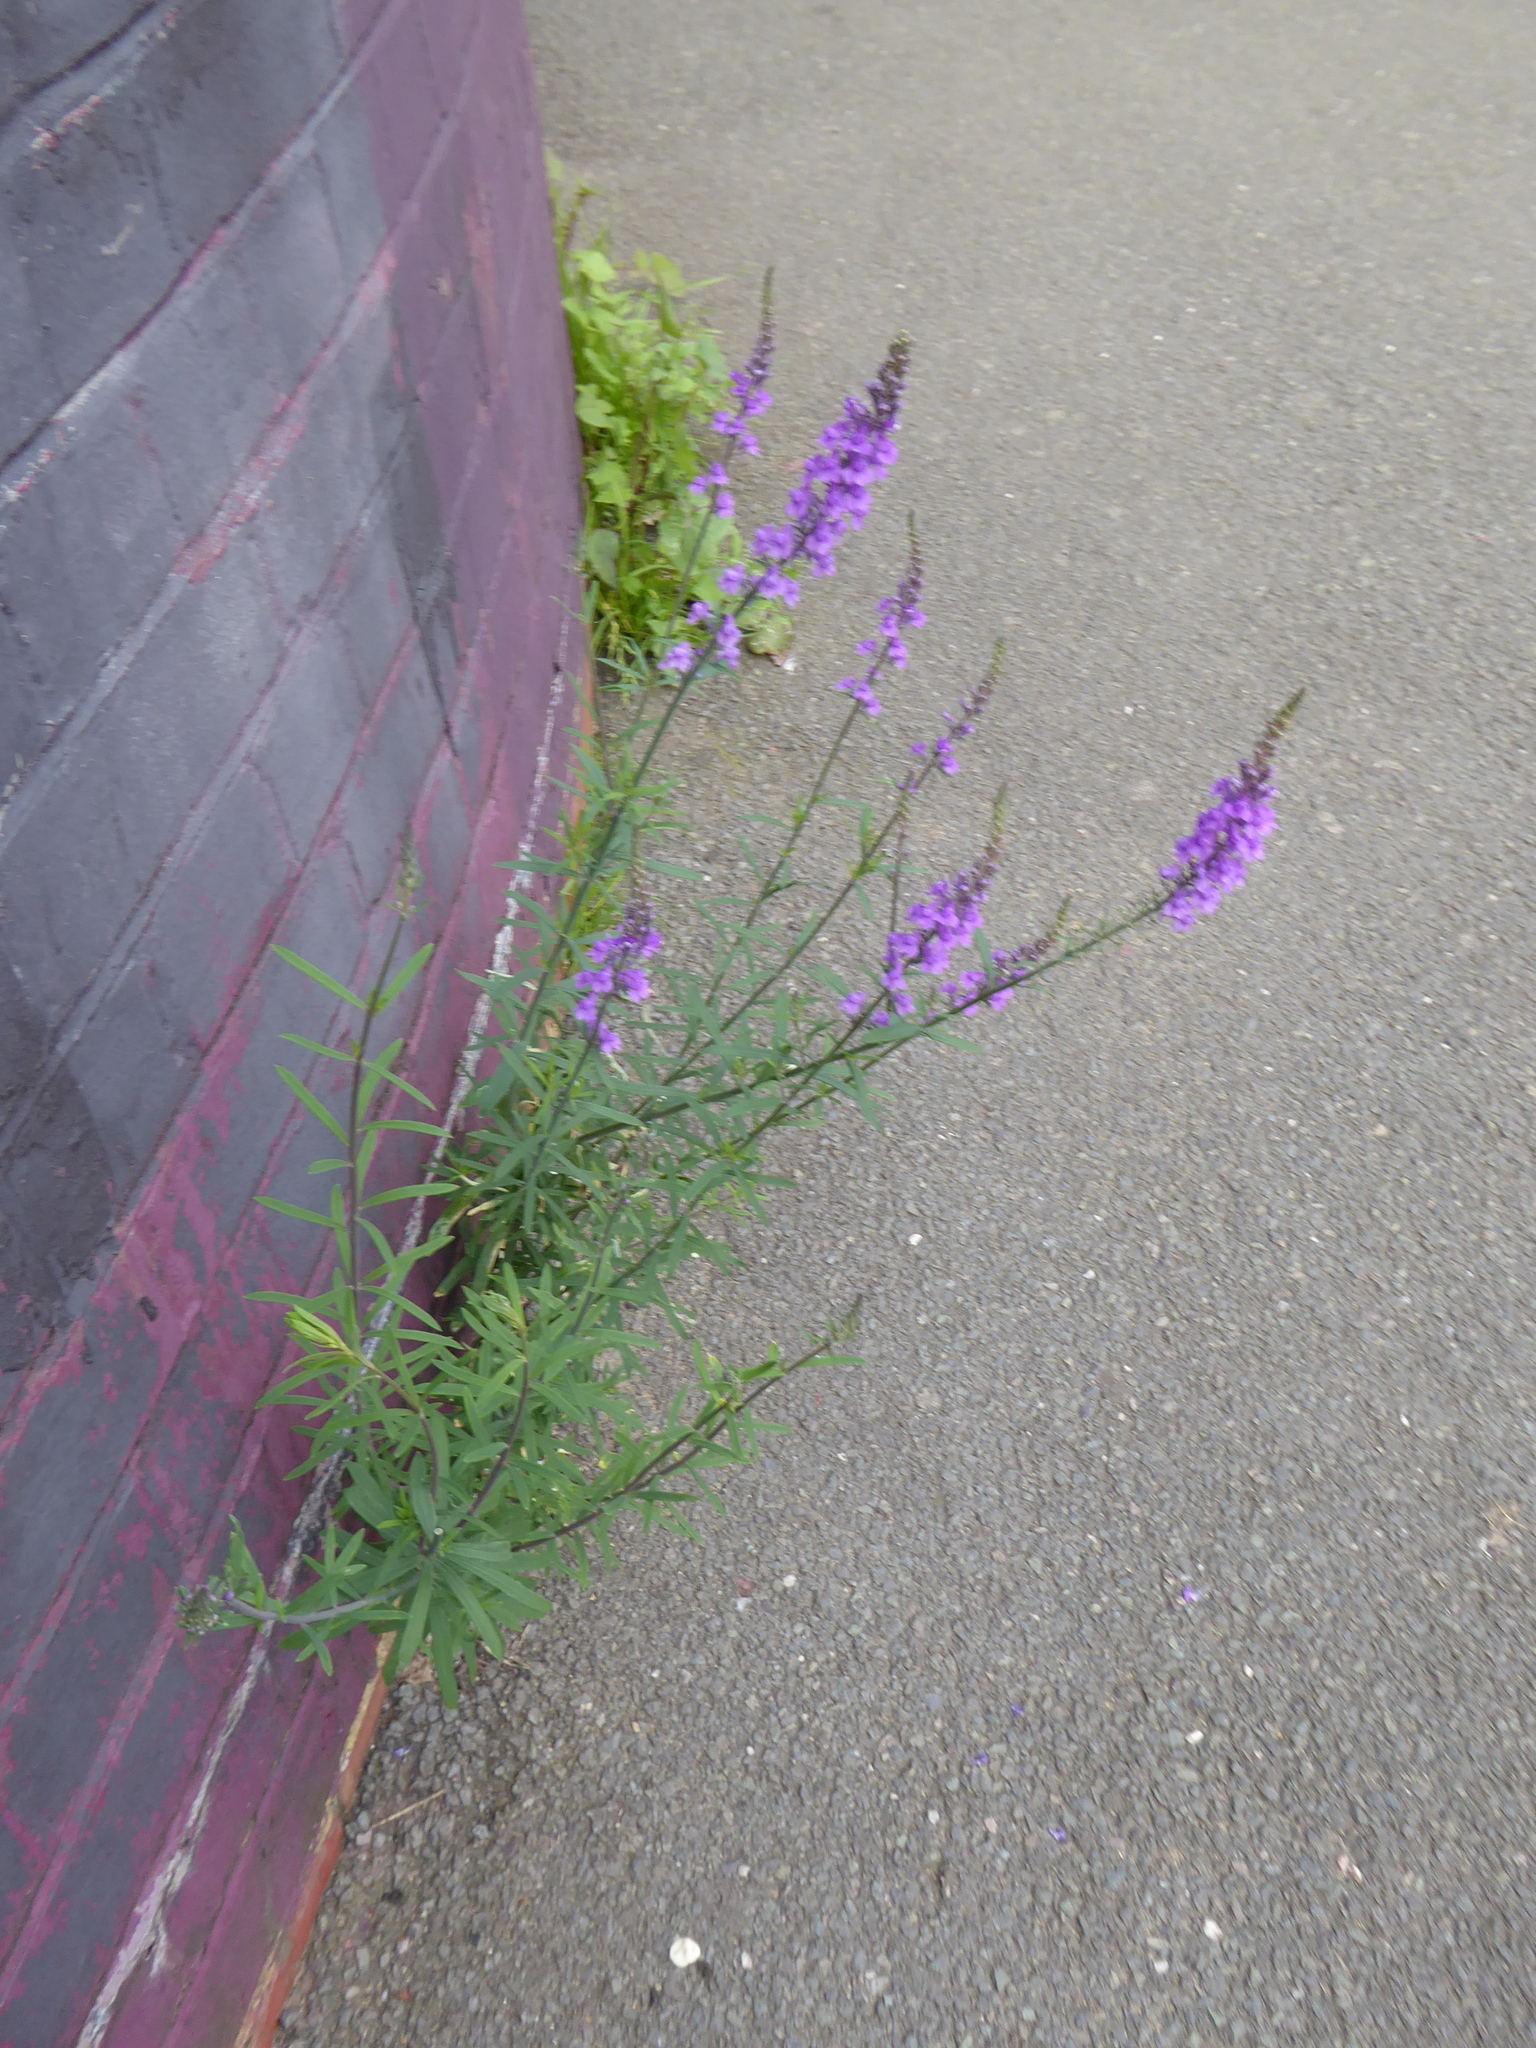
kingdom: Plantae
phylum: Tracheophyta
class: Magnoliopsida
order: Lamiales
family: Plantaginaceae
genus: Linaria
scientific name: Linaria purpurea
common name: Purple toadflax
